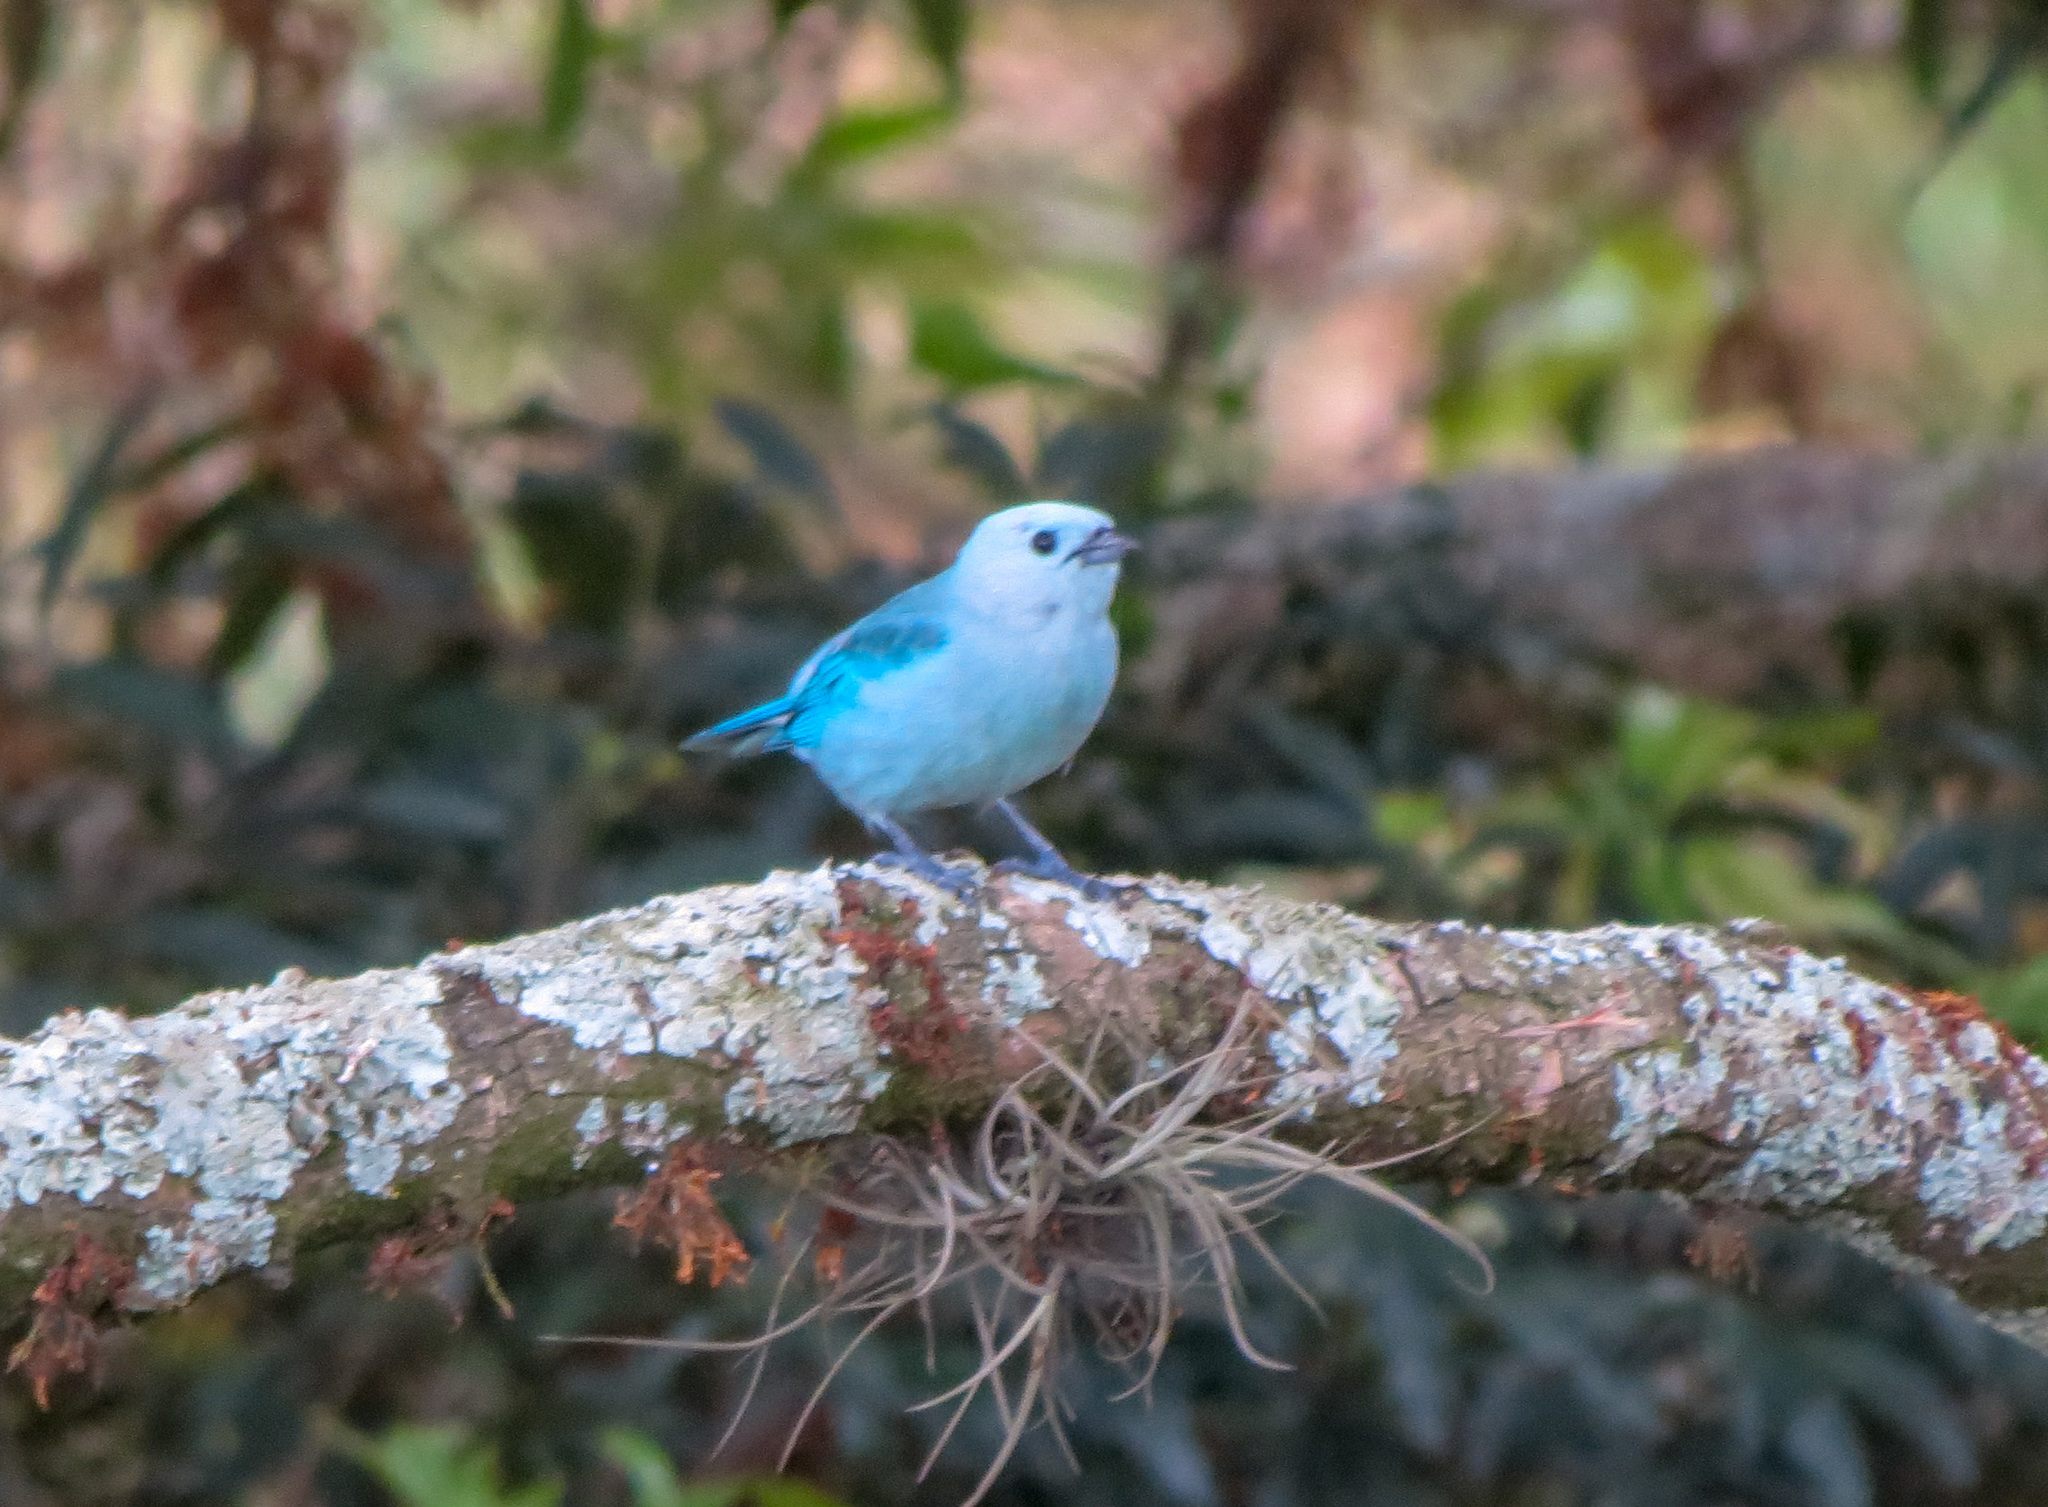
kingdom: Animalia
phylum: Chordata
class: Aves
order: Passeriformes
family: Thraupidae
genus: Thraupis
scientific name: Thraupis episcopus
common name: Blue-grey tanager
